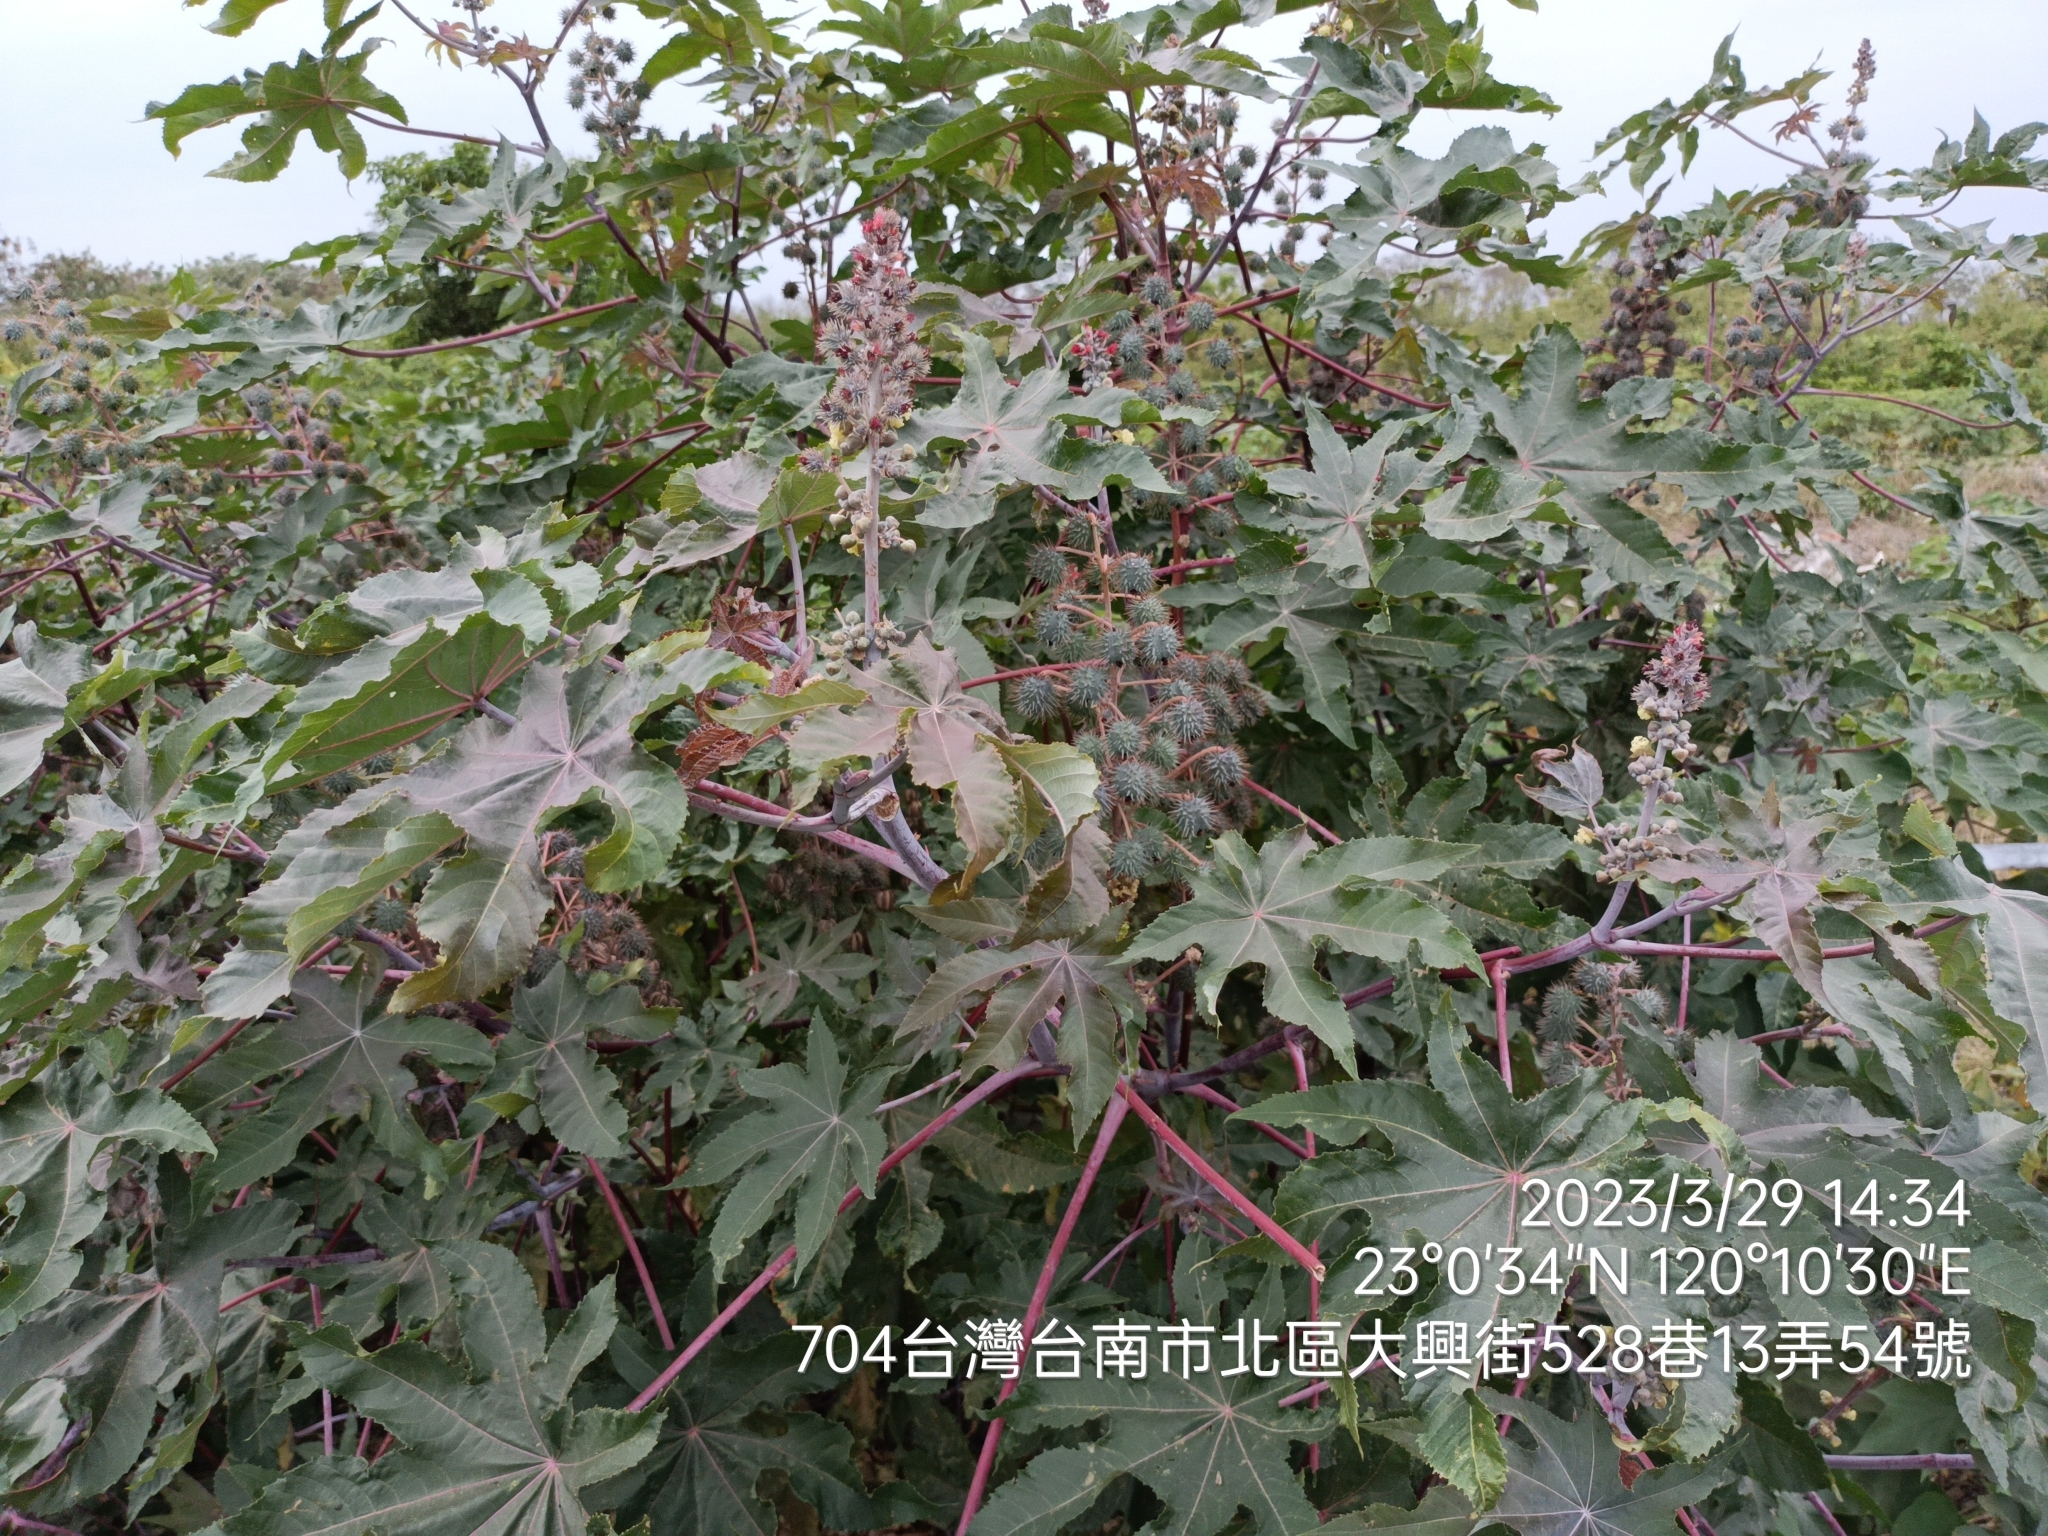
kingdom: Plantae
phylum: Tracheophyta
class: Magnoliopsida
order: Malpighiales
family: Euphorbiaceae
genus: Ricinus
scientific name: Ricinus communis
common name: Castor-oil-plant
